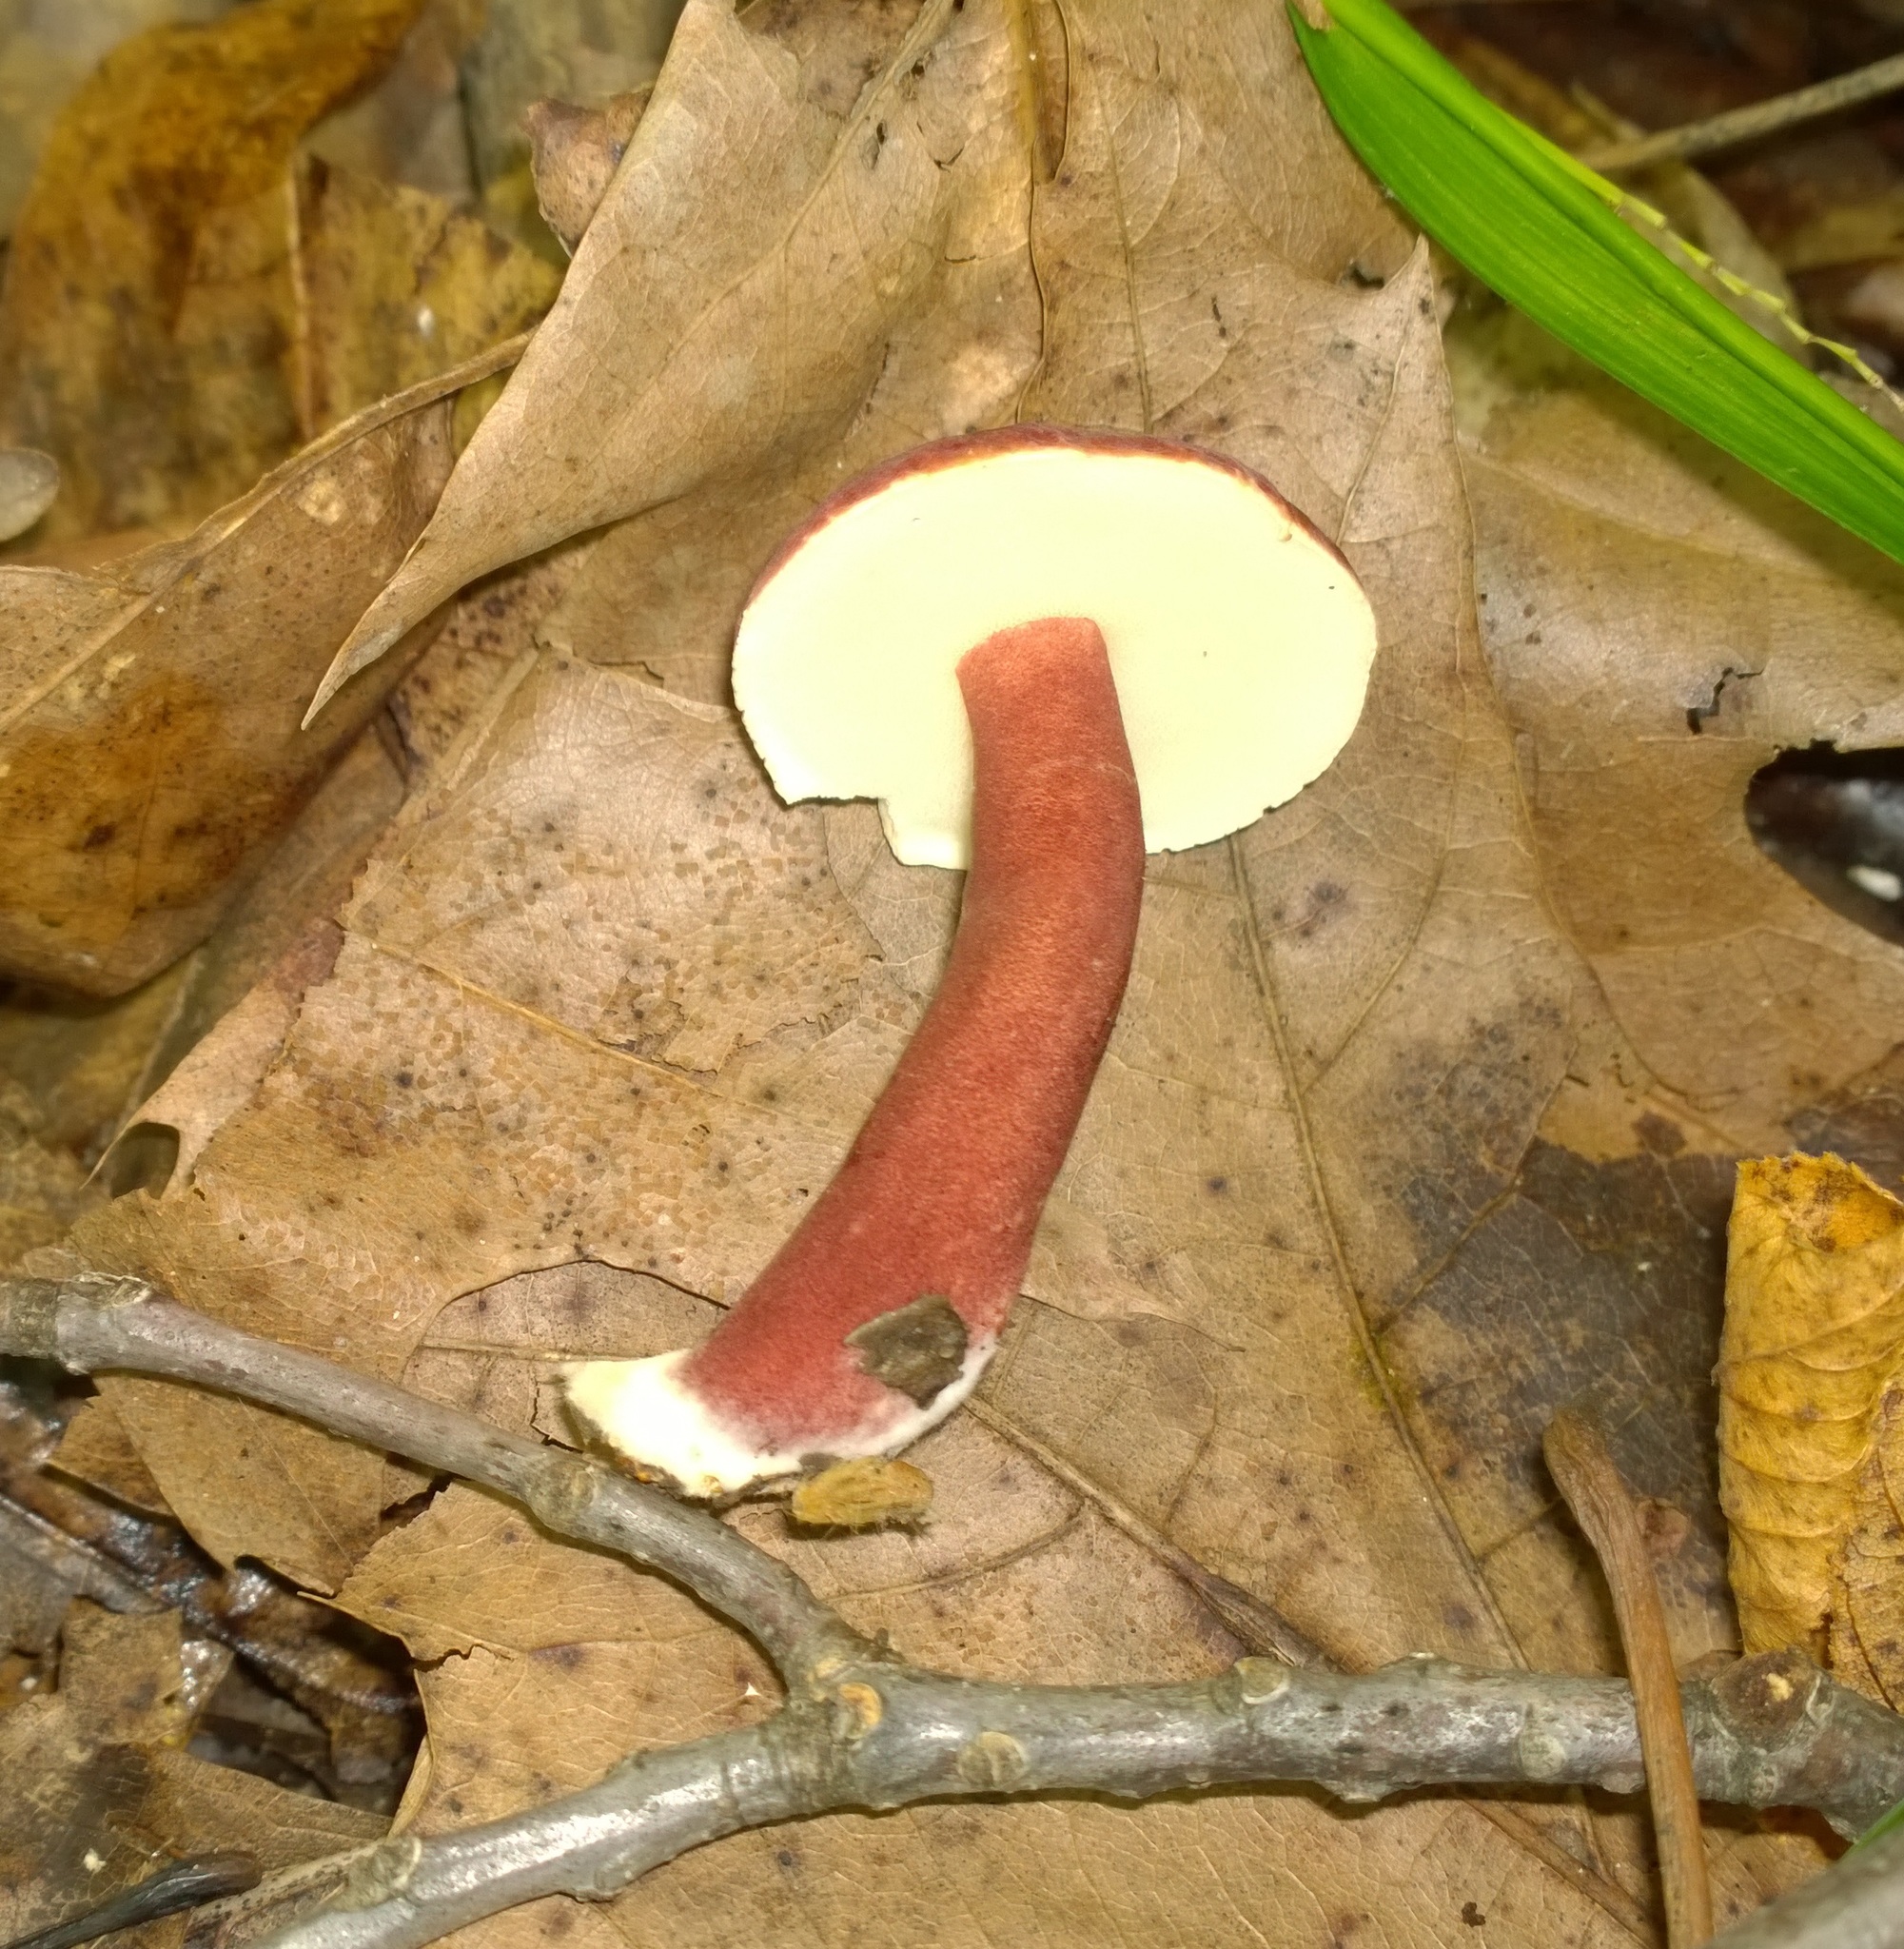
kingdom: Fungi
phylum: Basidiomycota
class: Agaricomycetes
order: Boletales
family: Gyroporaceae
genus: Gyroporus
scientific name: Gyroporus purpurinus
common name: Red gyroporus
